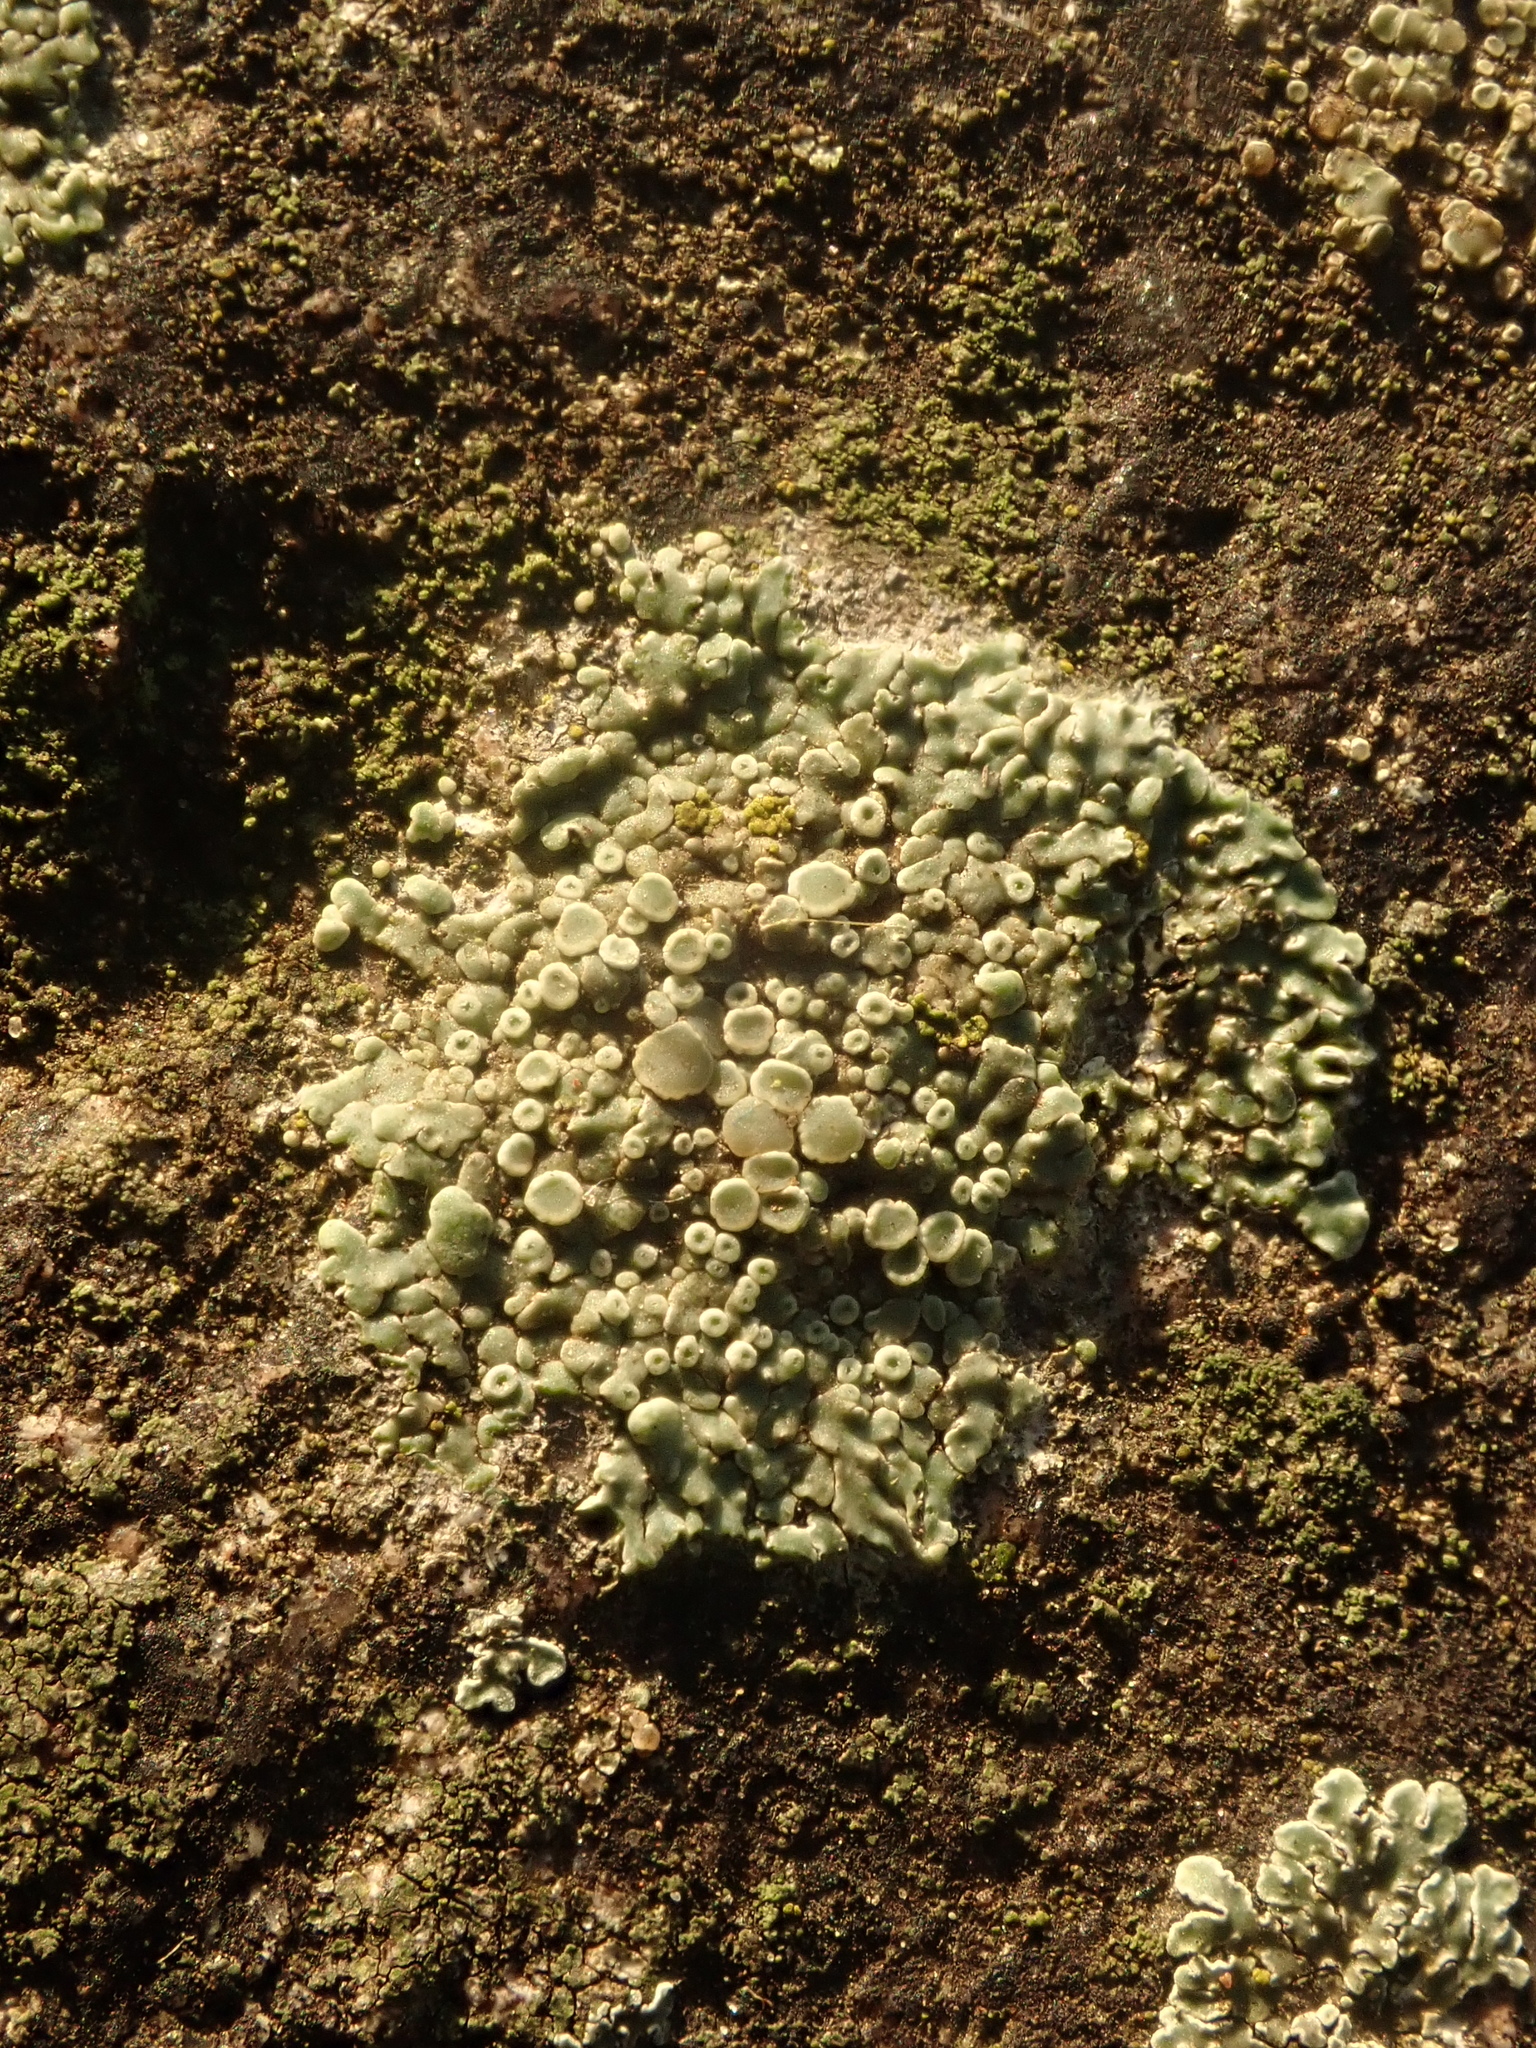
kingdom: Fungi
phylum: Ascomycota
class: Lecanoromycetes
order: Lecanorales
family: Lecanoraceae
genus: Protoparmeliopsis
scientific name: Protoparmeliopsis muralis
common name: Stonewall rim lichen
